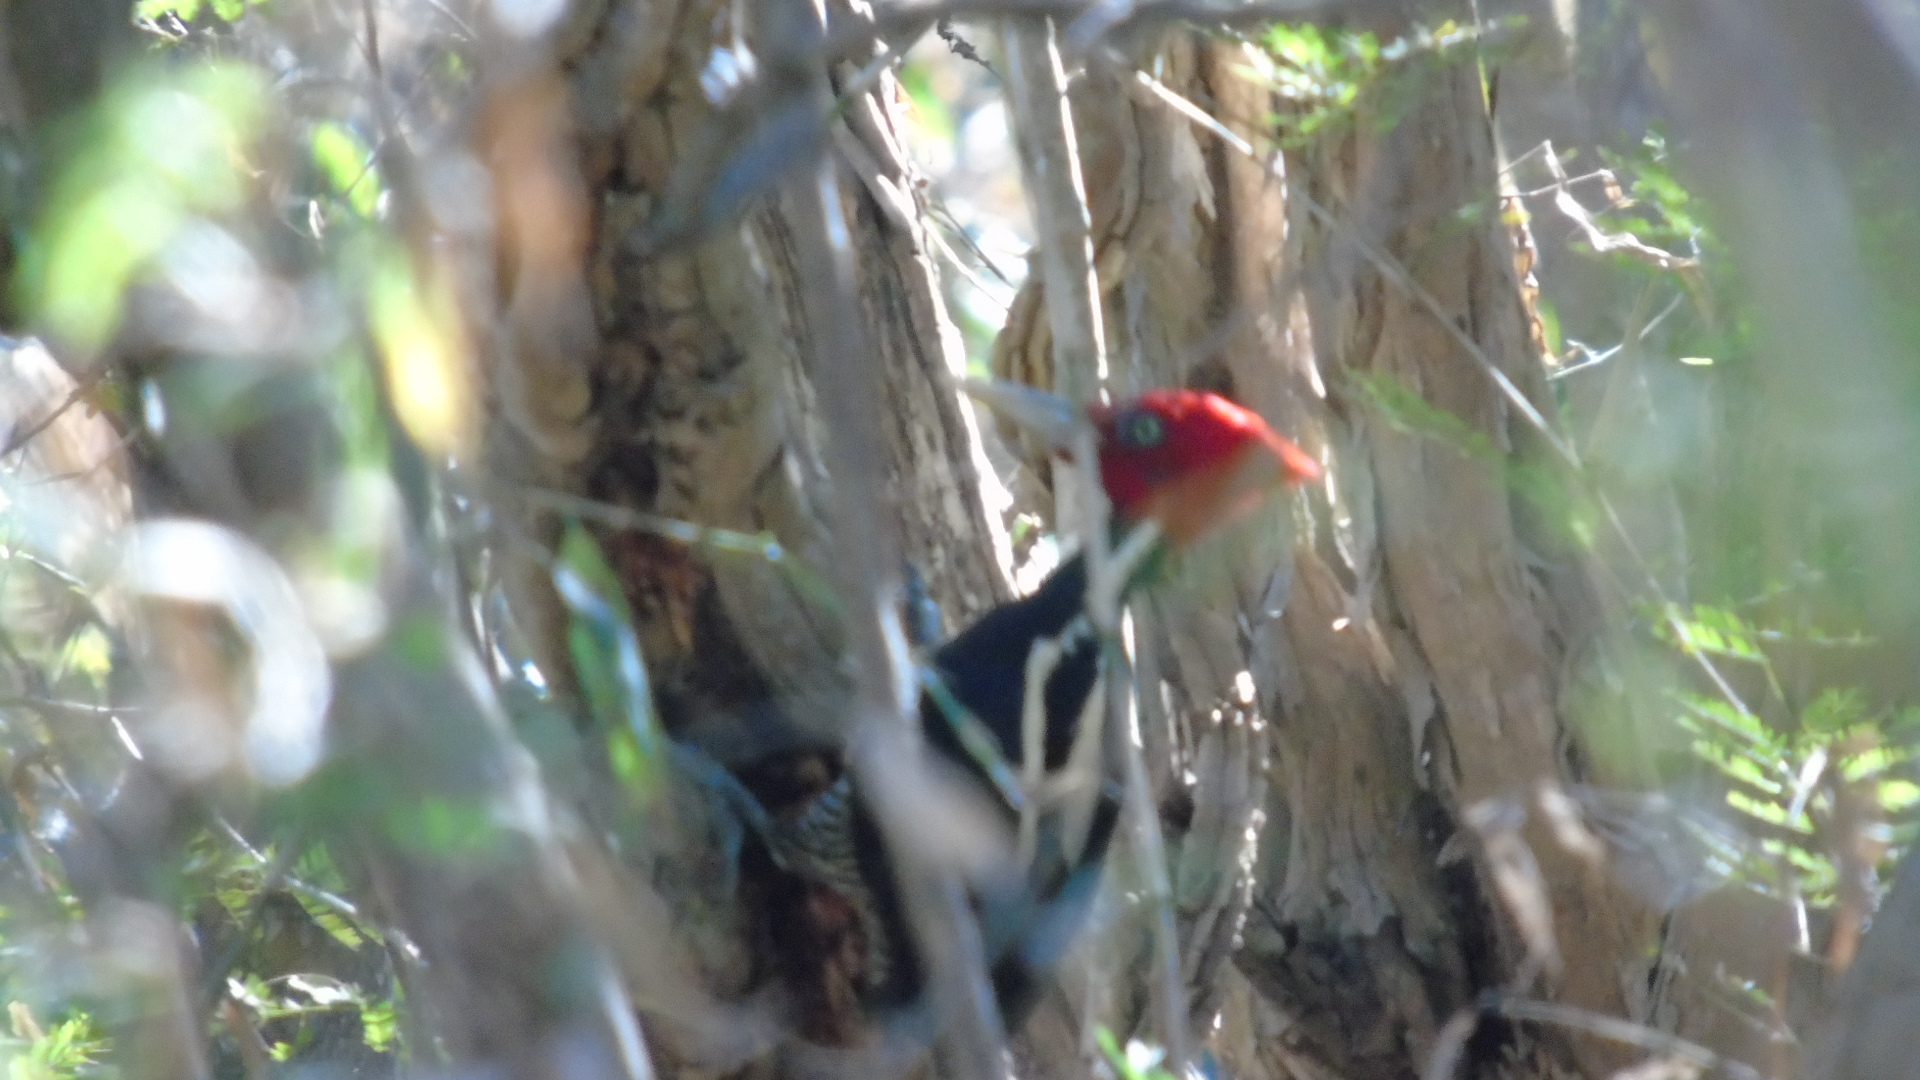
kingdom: Animalia
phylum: Chordata
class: Aves
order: Piciformes
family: Picidae
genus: Campephilus
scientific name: Campephilus guatemalensis
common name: Pale-billed woodpecker
